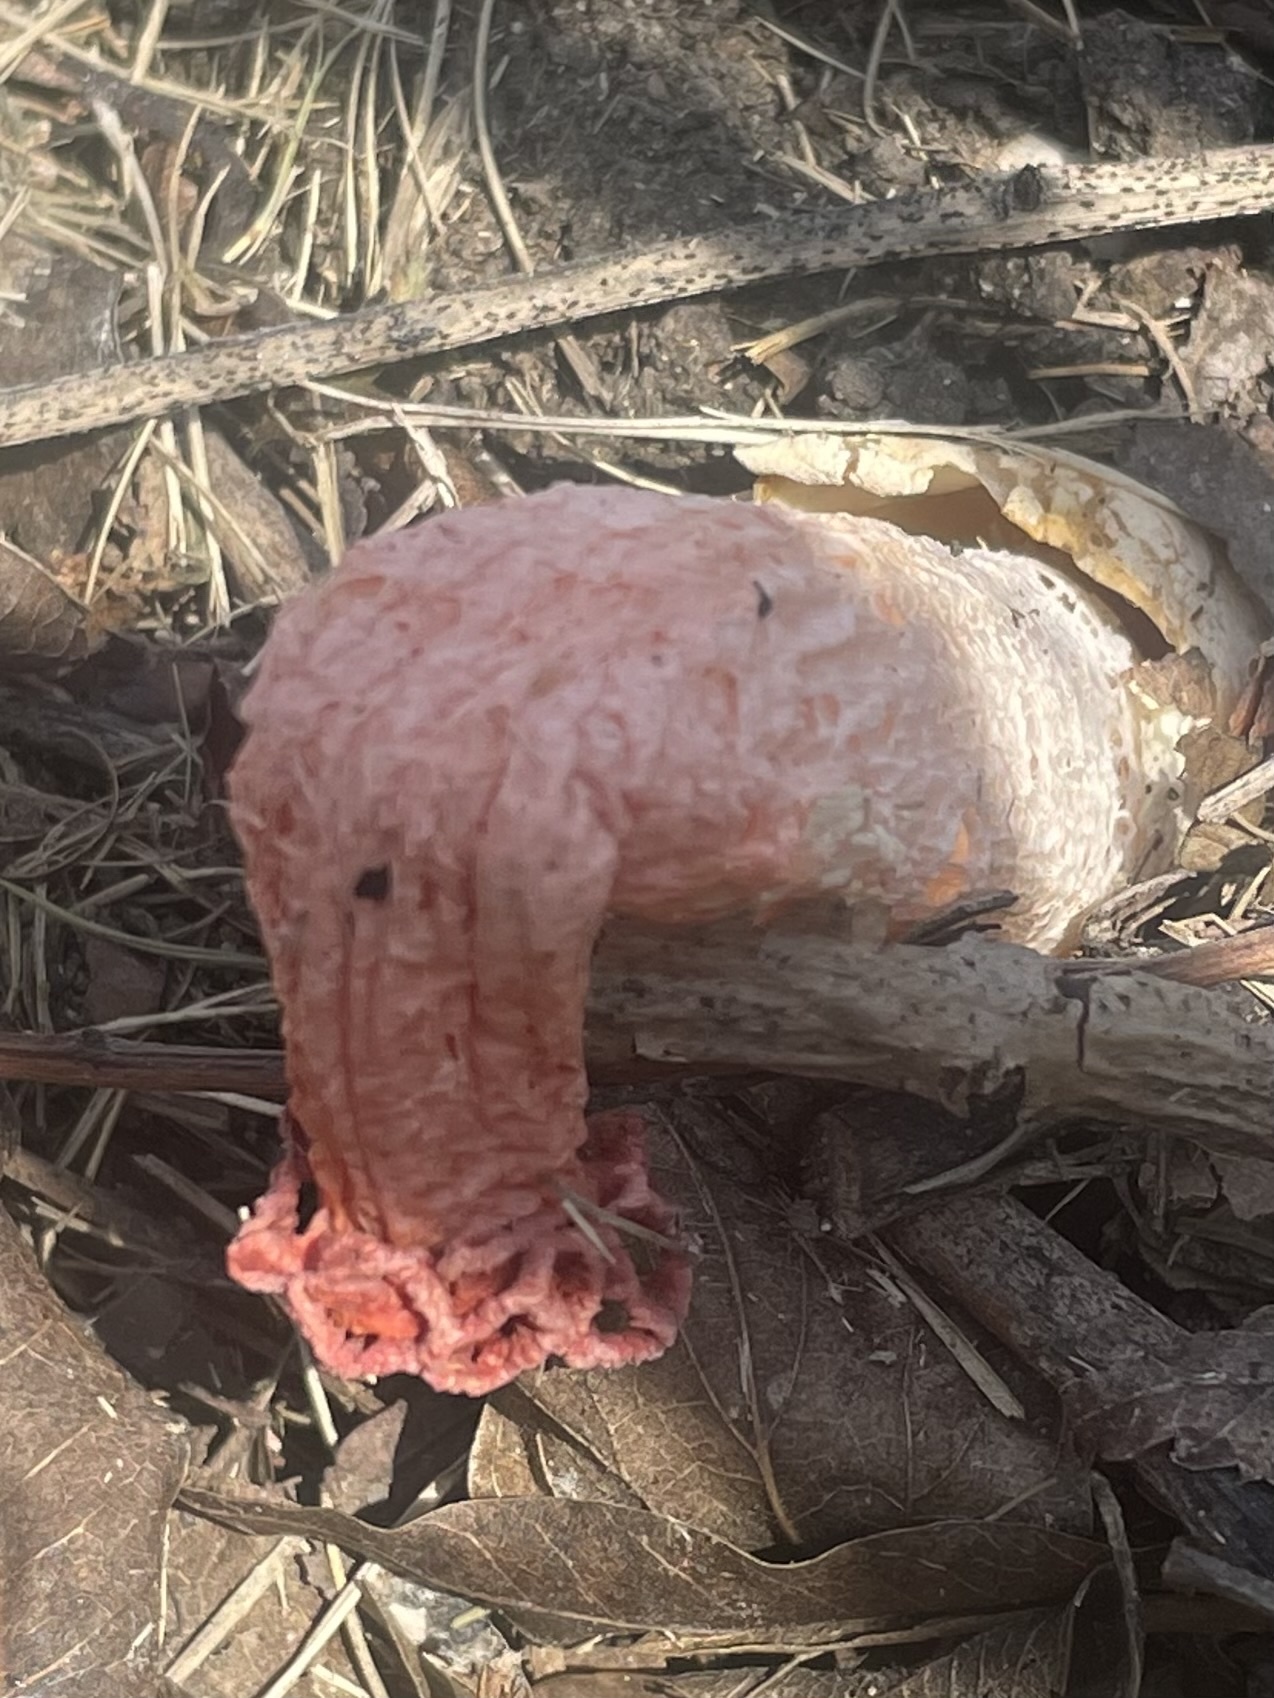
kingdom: Fungi
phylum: Basidiomycota
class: Agaricomycetes
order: Phallales
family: Phallaceae
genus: Lysurus
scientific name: Lysurus periphragmoides
